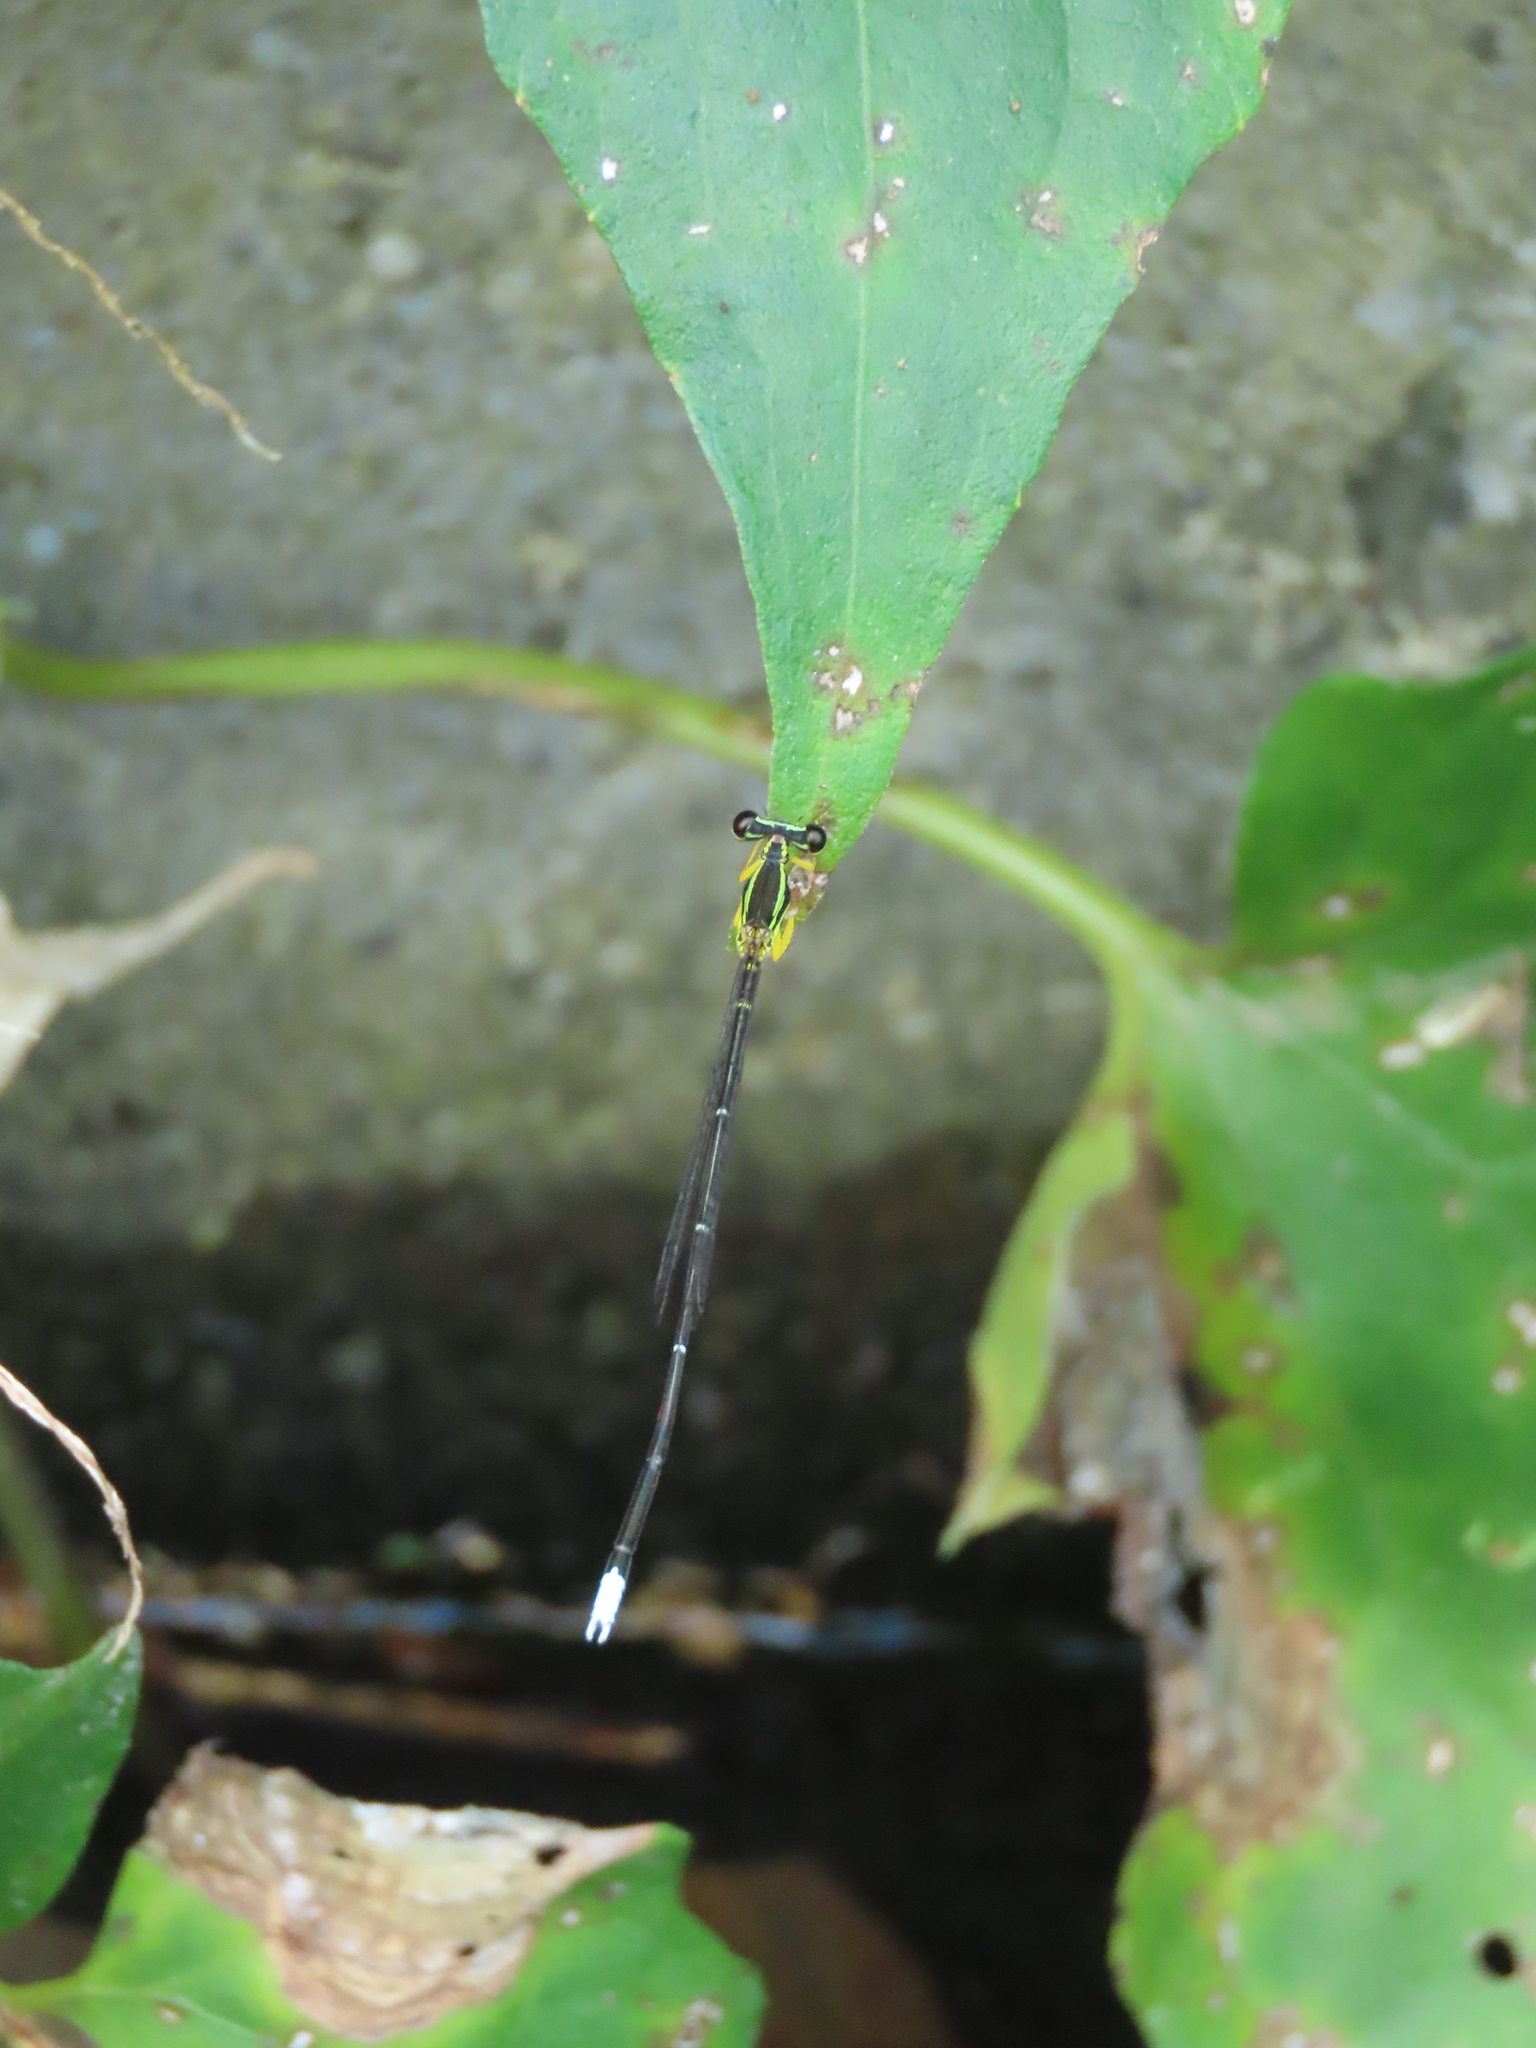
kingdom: Animalia
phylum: Arthropoda
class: Insecta
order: Odonata
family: Platycnemididae
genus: Copera
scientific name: Copera marginipes
